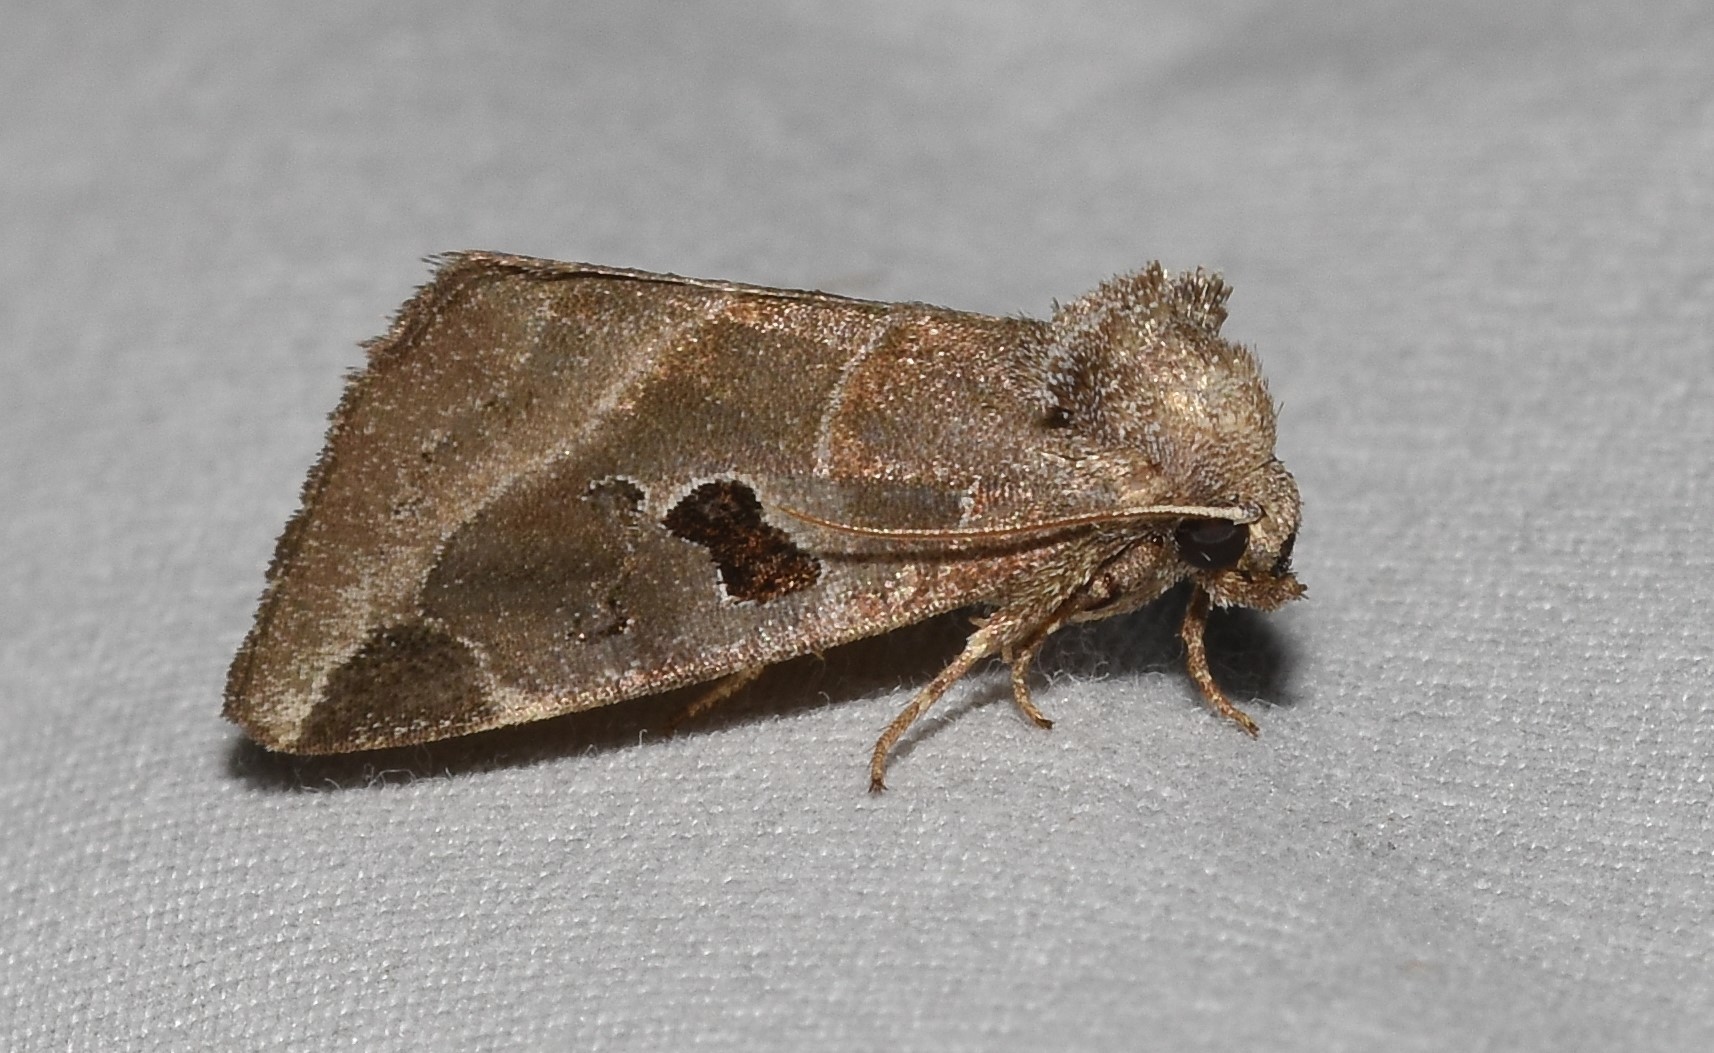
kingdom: Animalia
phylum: Arthropoda
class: Insecta
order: Lepidoptera
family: Noctuidae
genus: Plagiomimicus
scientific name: Plagiomimicus pityochromus
